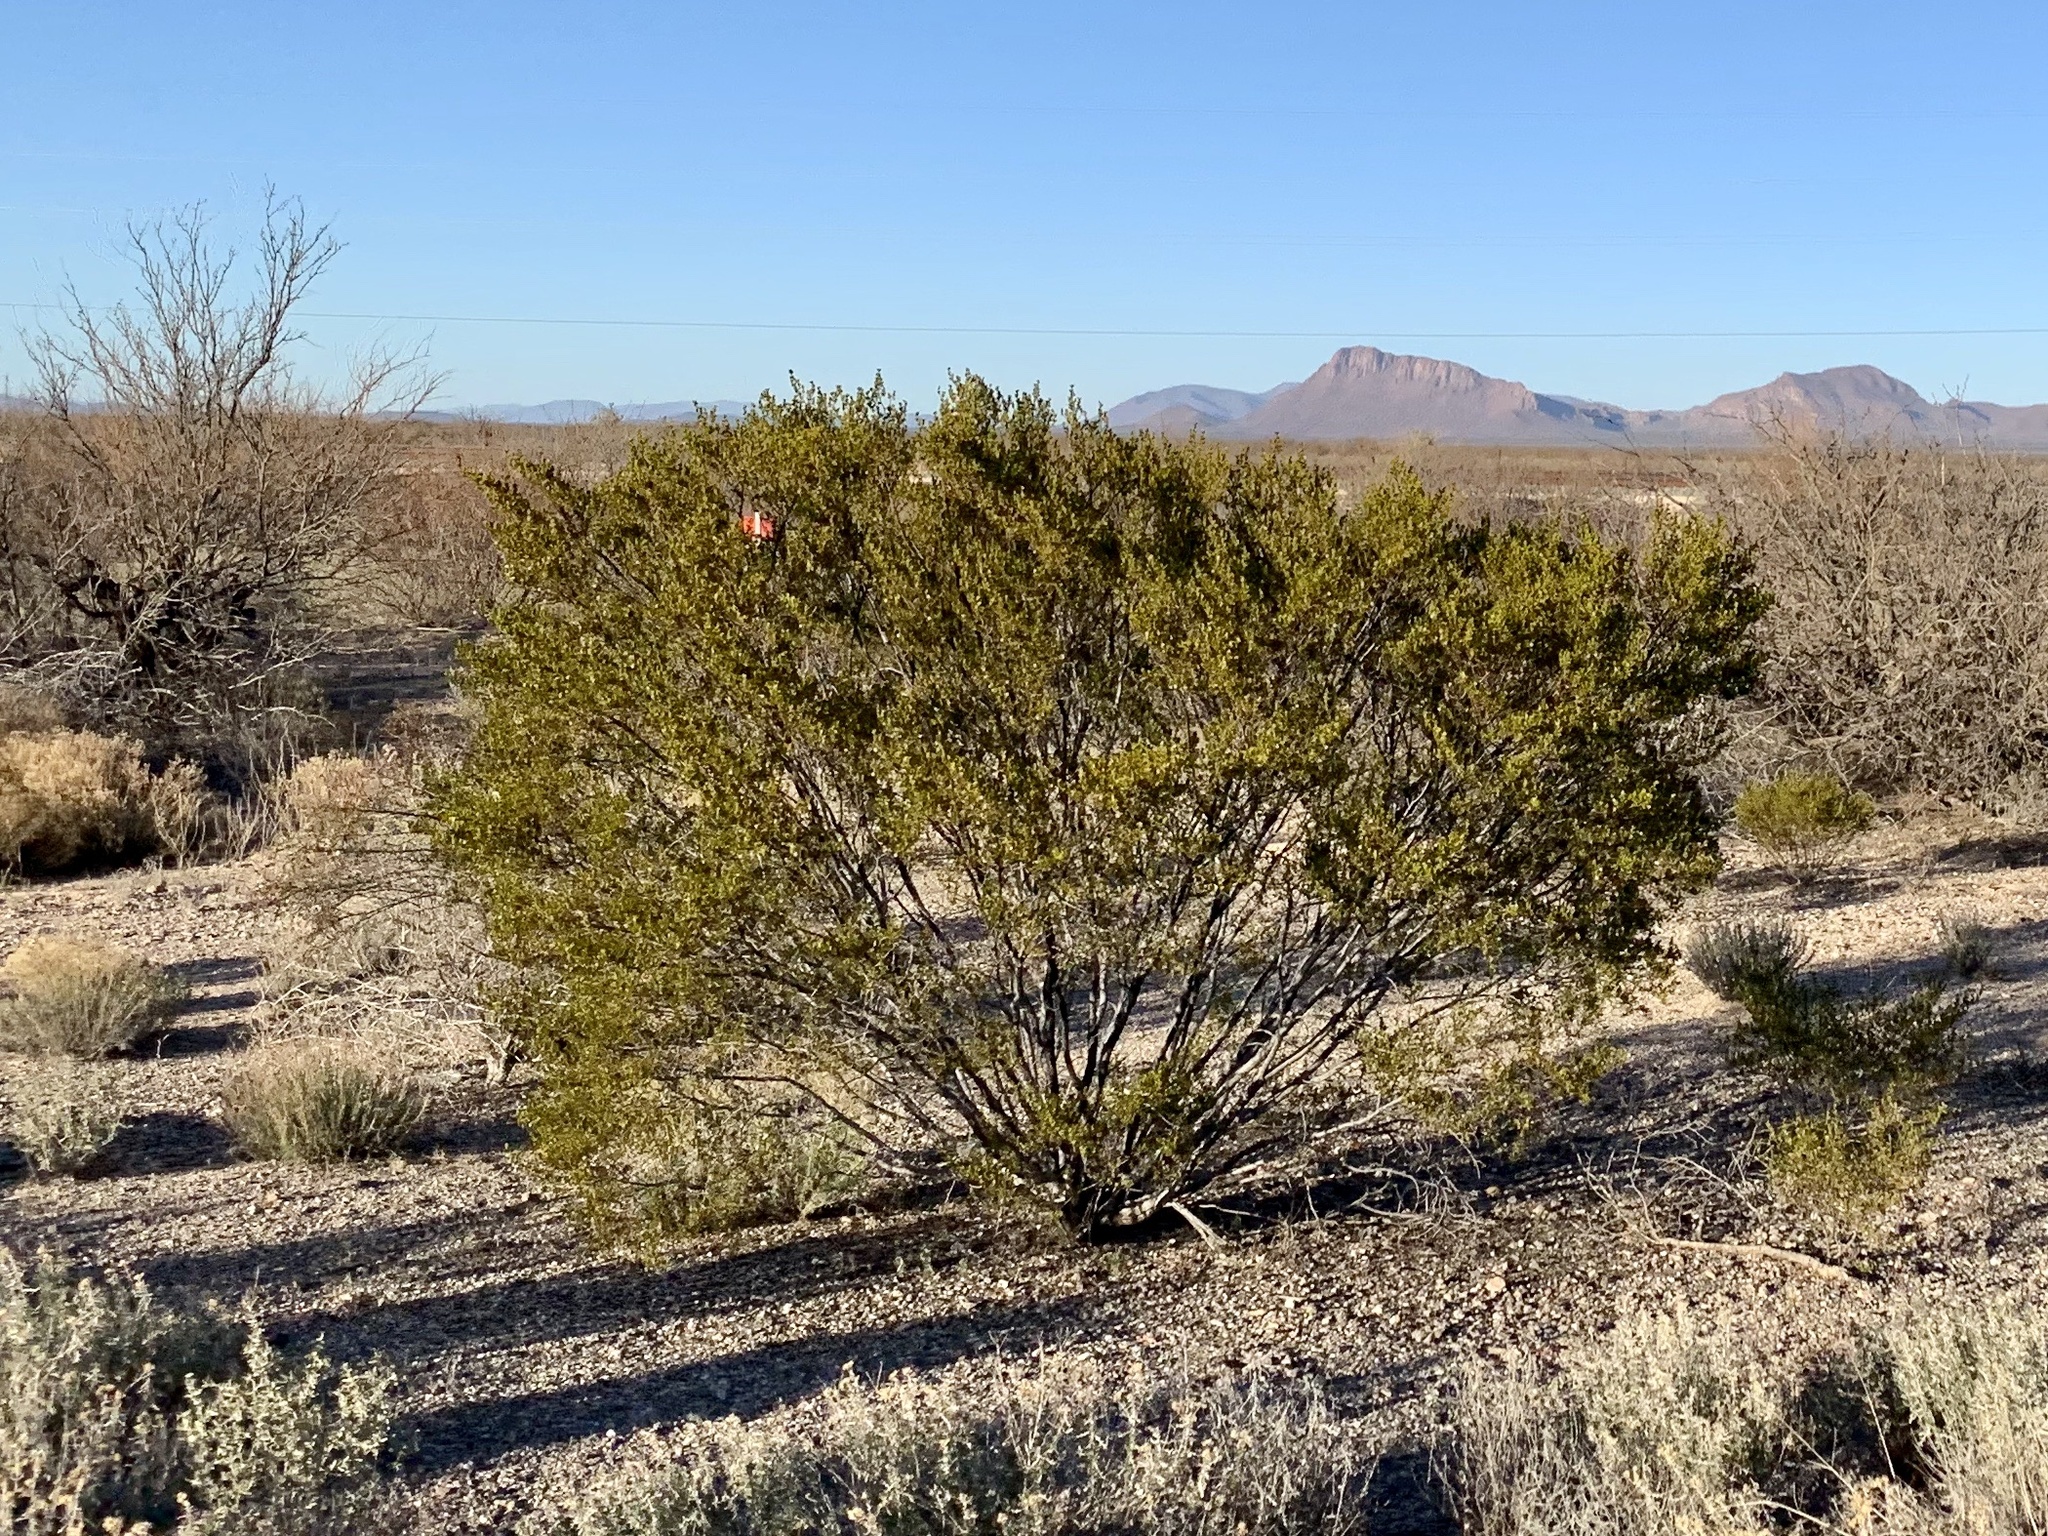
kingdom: Plantae
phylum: Tracheophyta
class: Magnoliopsida
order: Zygophyllales
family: Zygophyllaceae
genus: Larrea
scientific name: Larrea tridentata
